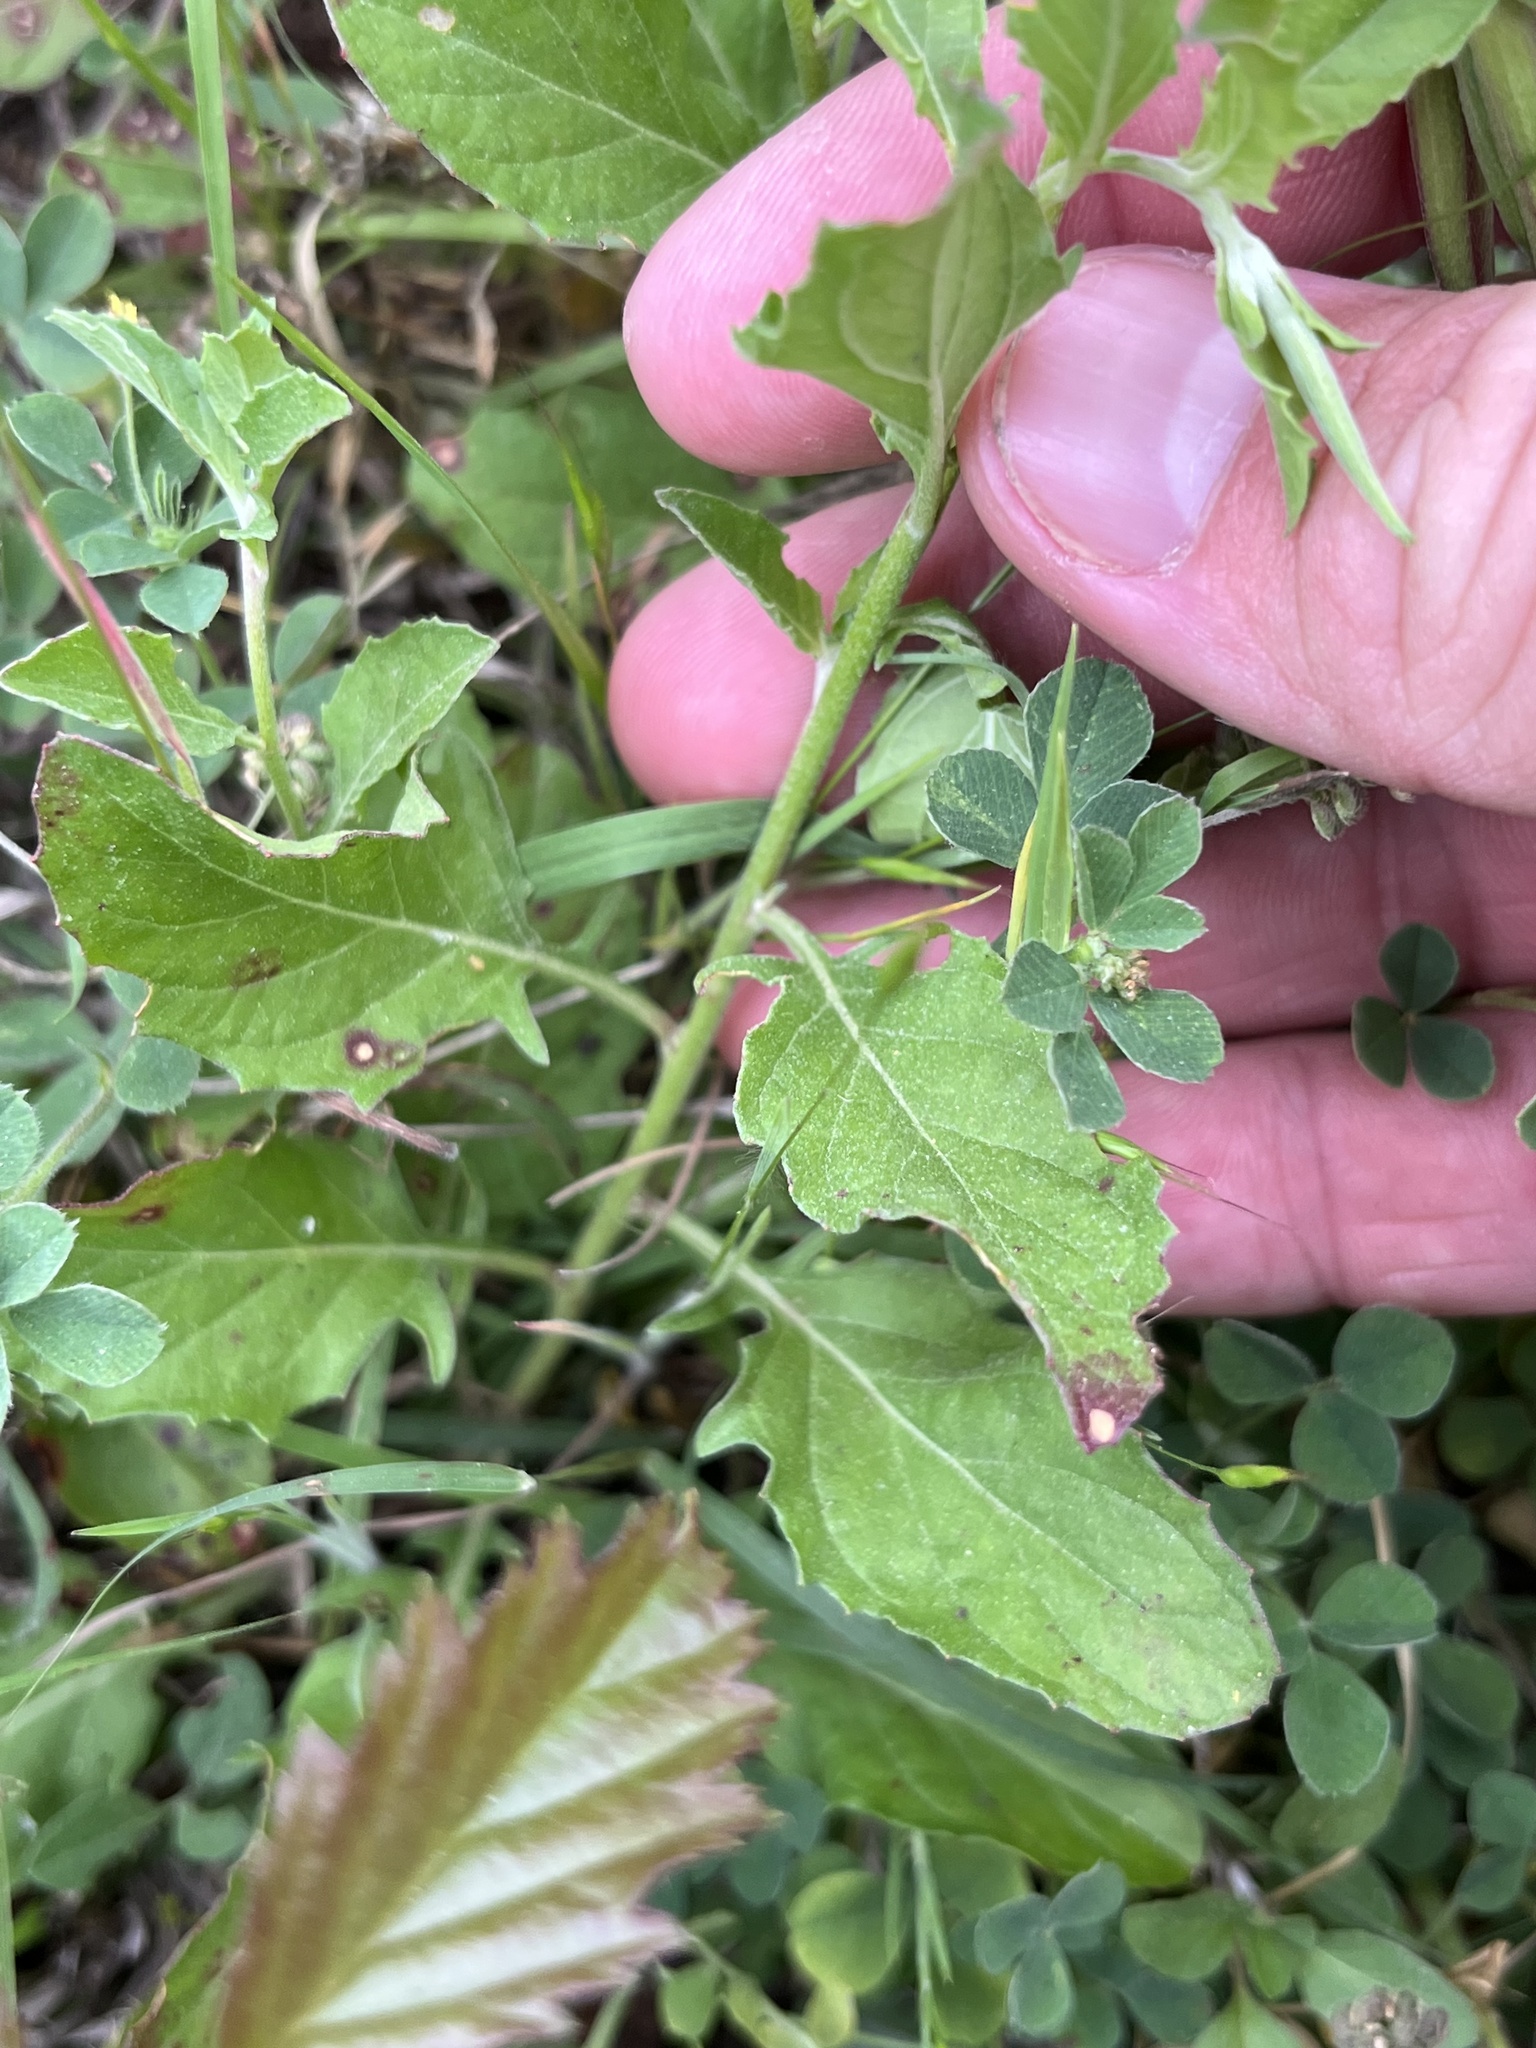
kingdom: Plantae
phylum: Tracheophyta
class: Magnoliopsida
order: Myrtales
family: Onagraceae
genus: Oenothera
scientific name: Oenothera speciosa
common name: White evening-primrose
